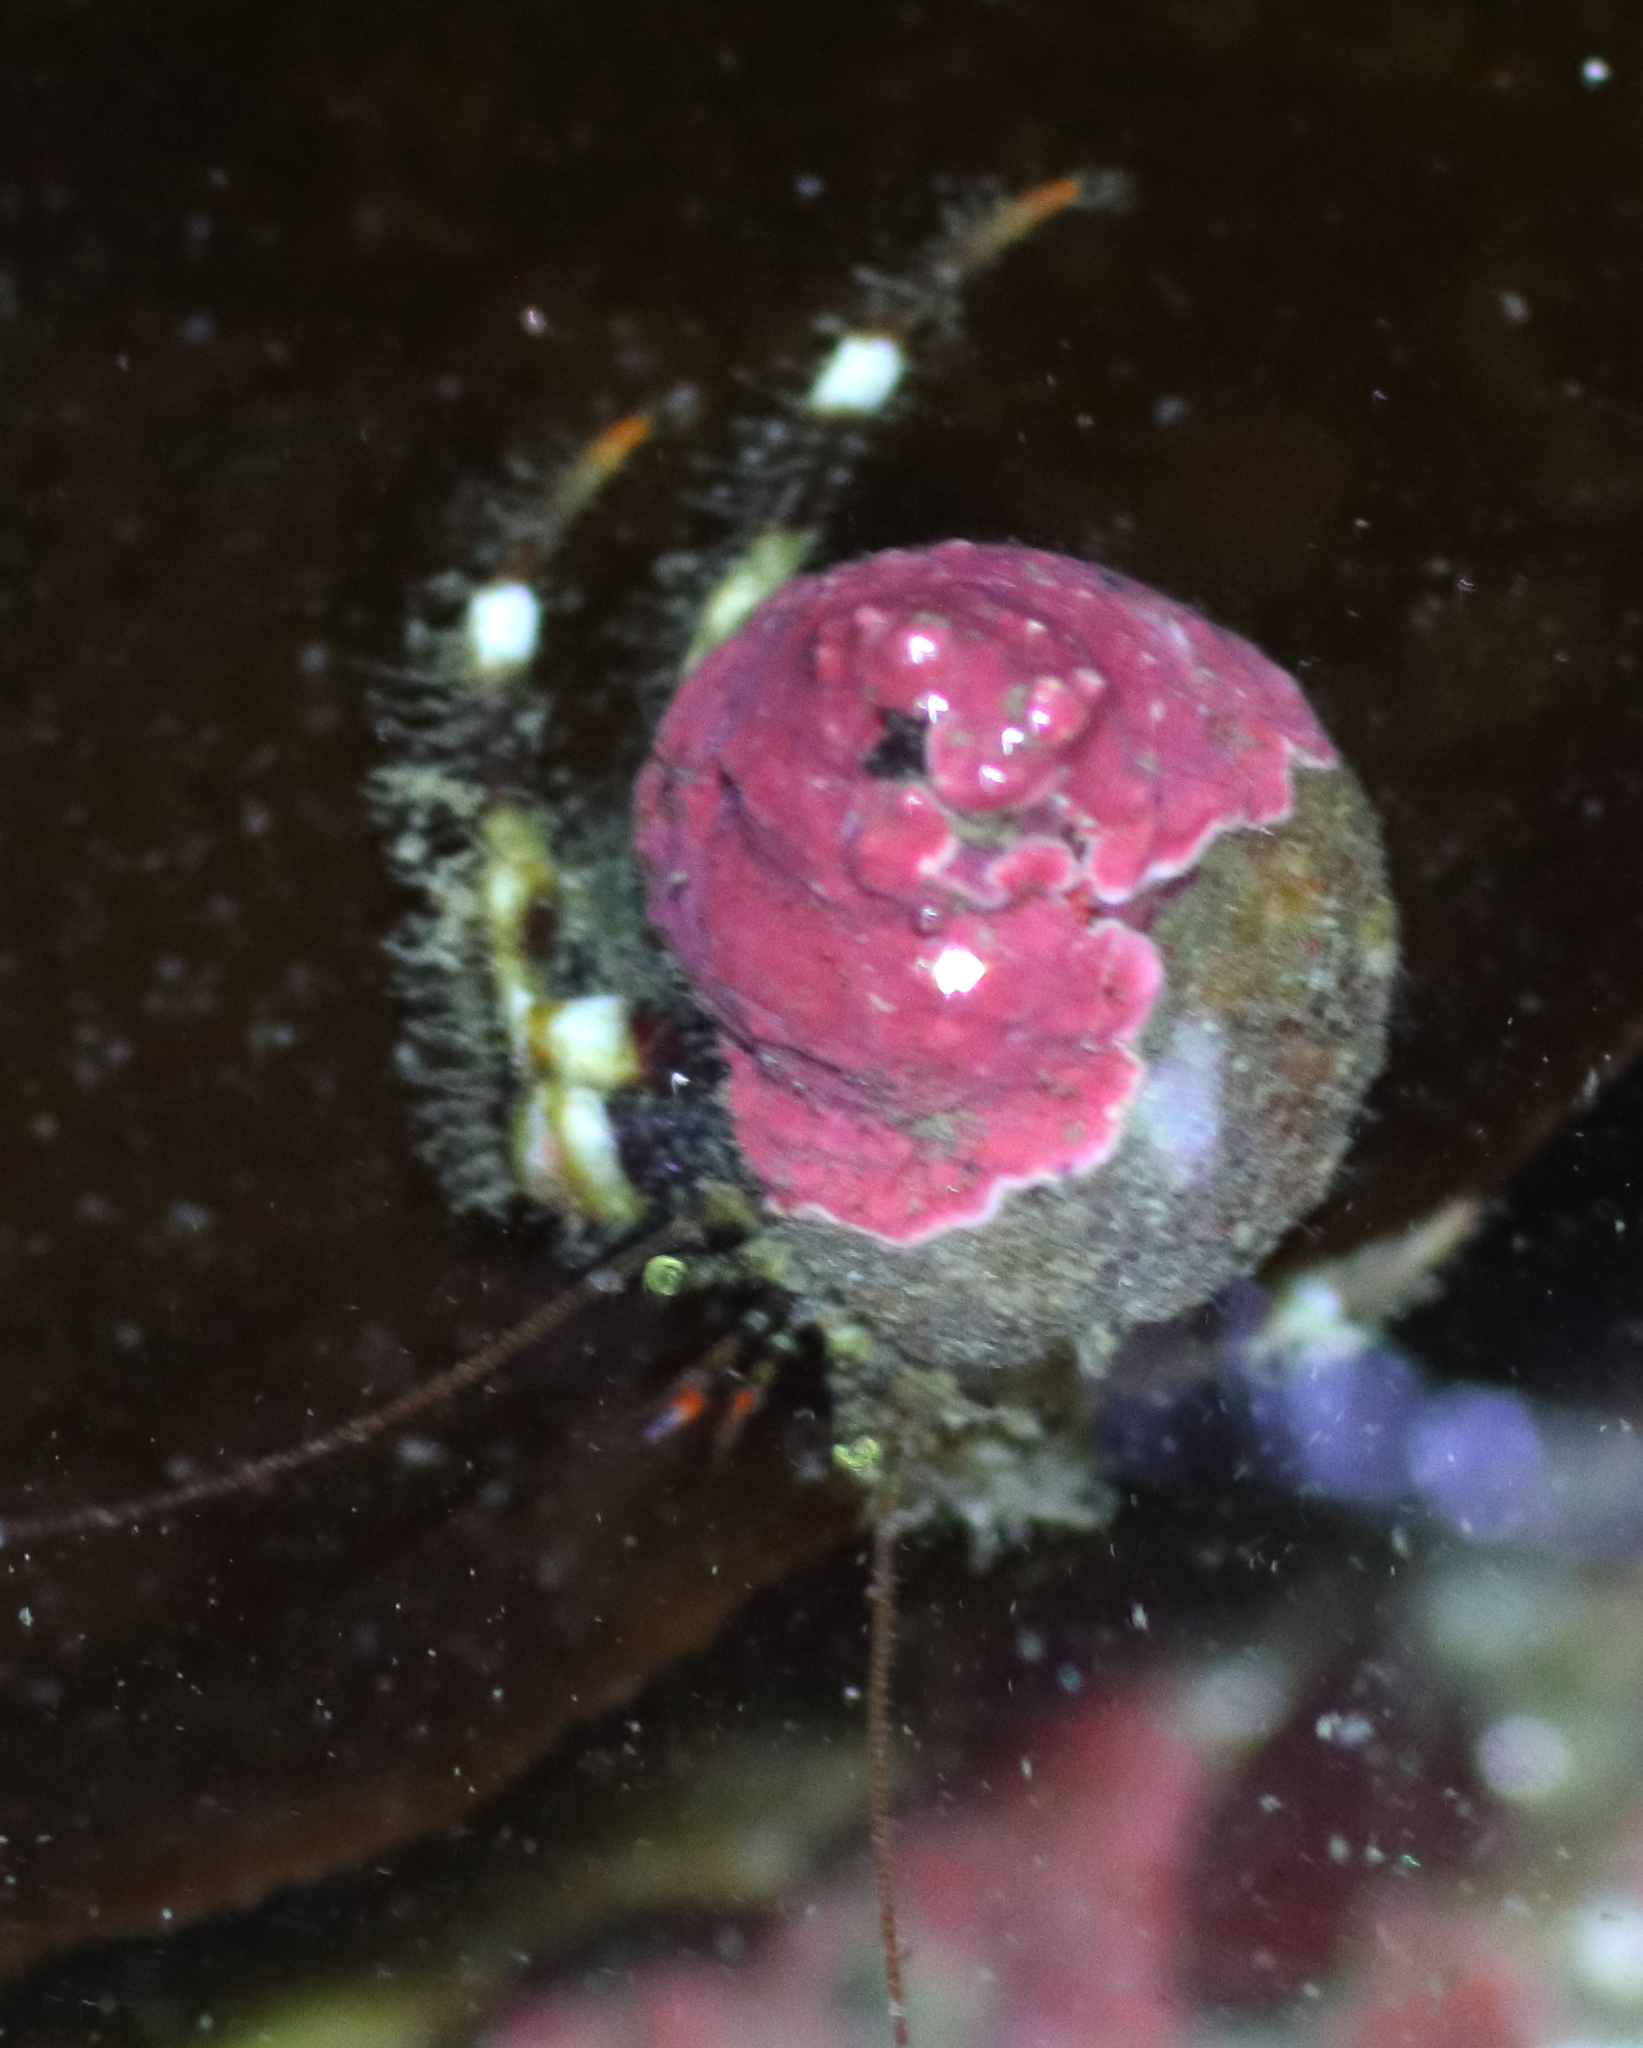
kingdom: Animalia
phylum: Arthropoda
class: Malacostraca
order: Decapoda
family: Paguridae
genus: Pagurus
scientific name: Pagurus caurinus
